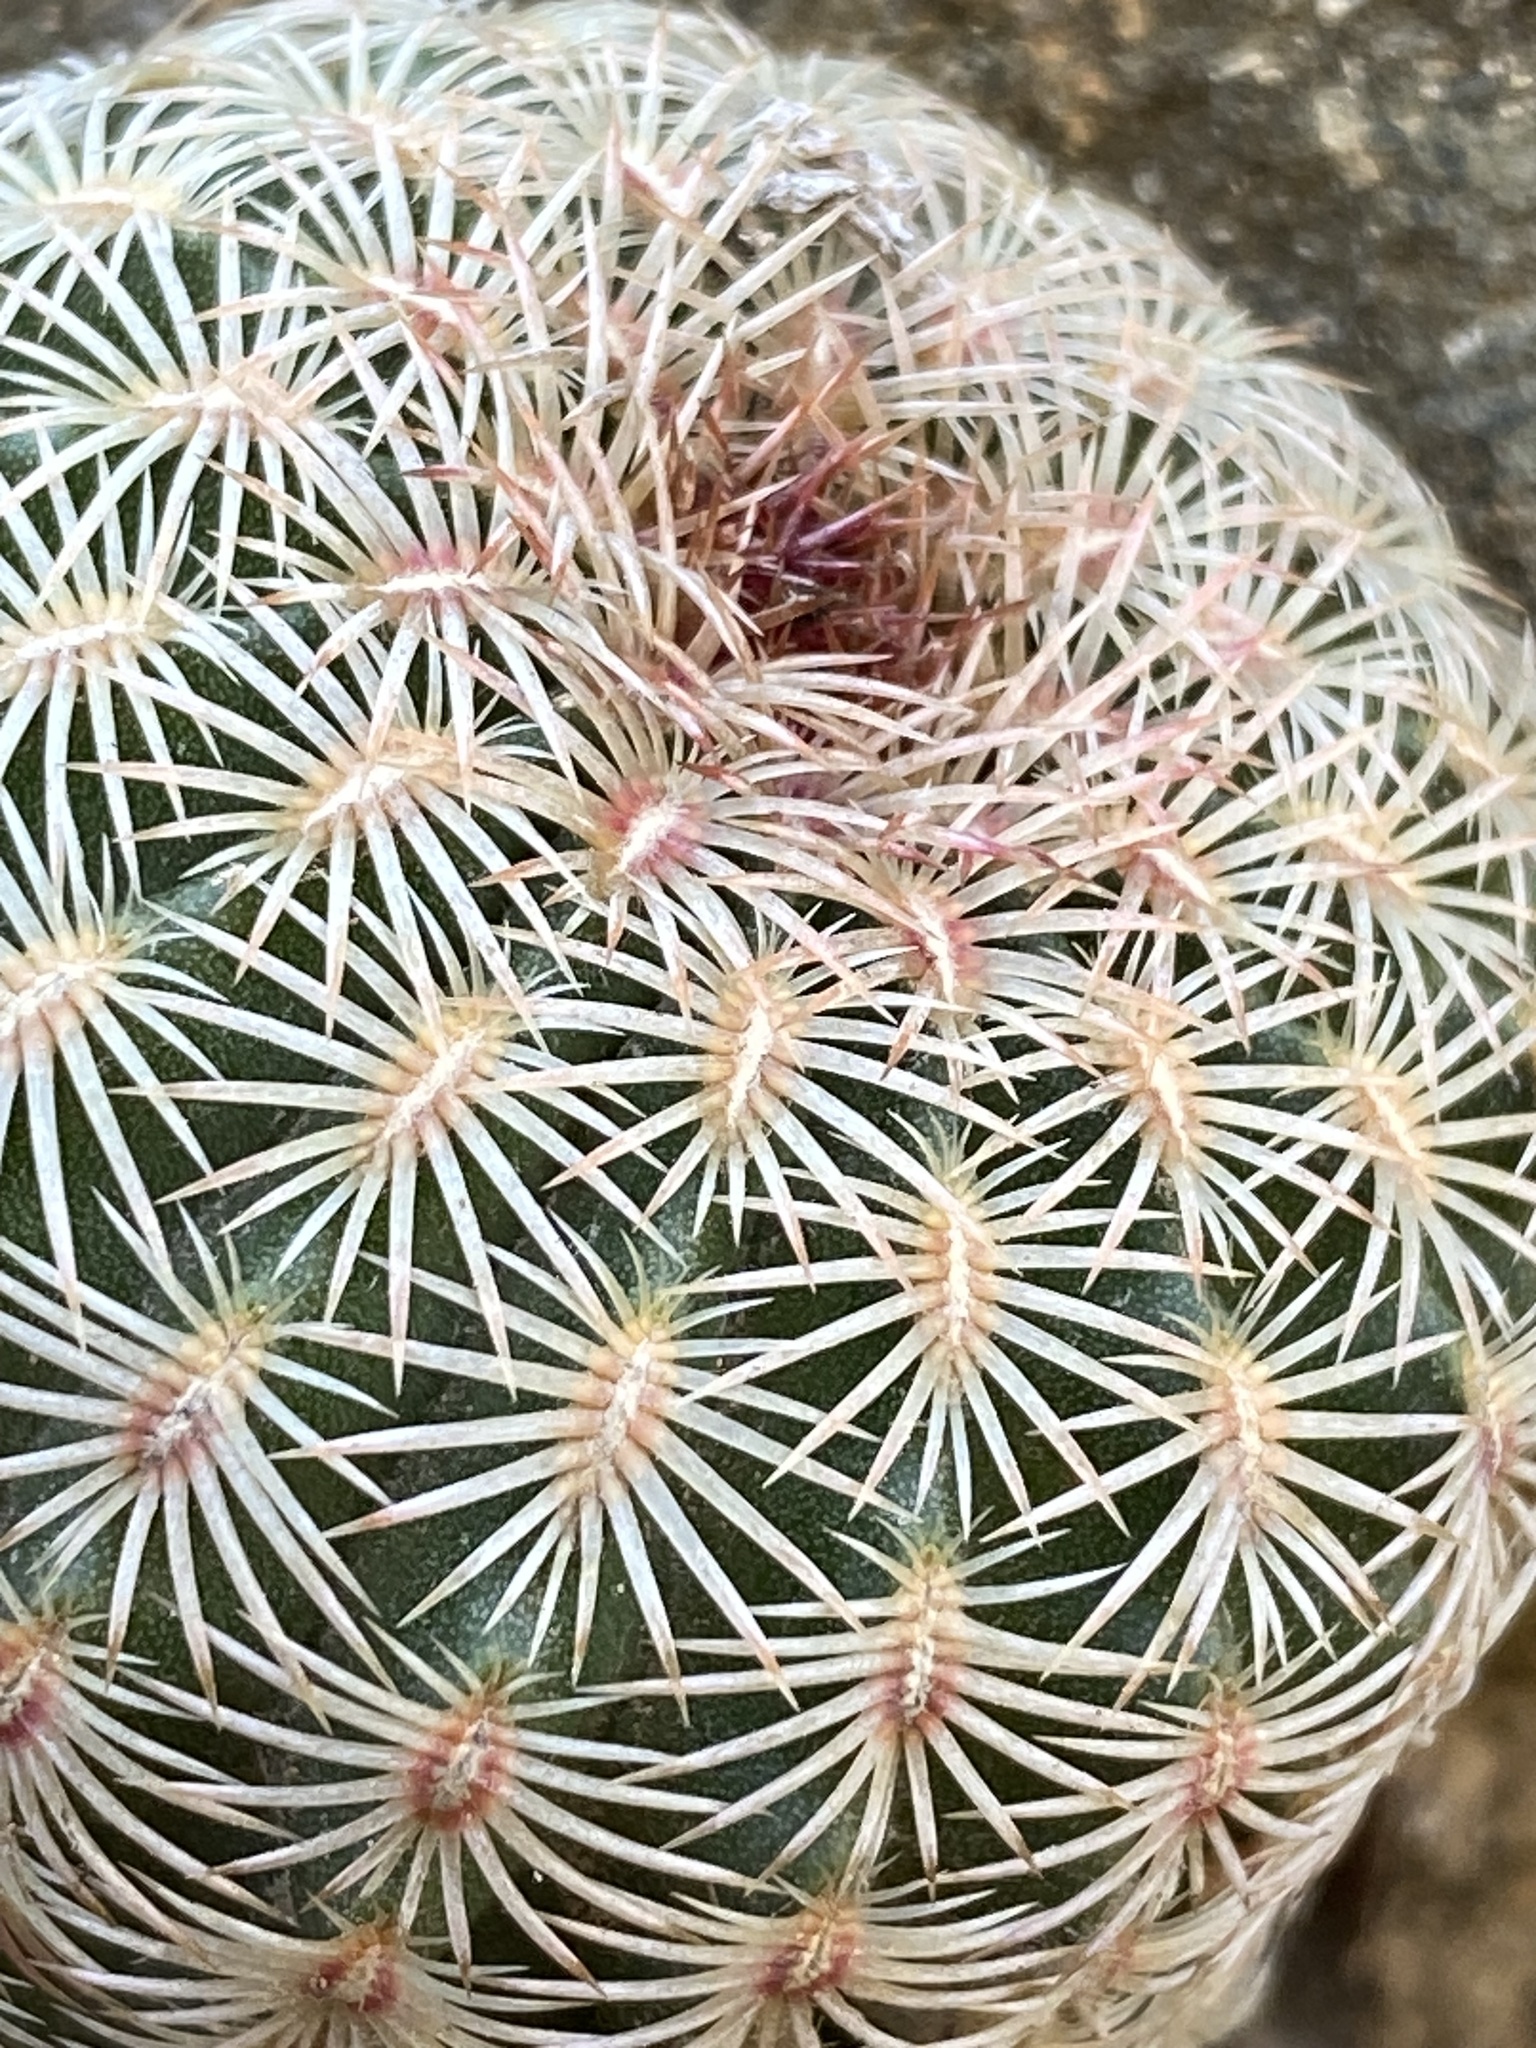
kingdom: Plantae
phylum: Tracheophyta
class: Magnoliopsida
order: Caryophyllales
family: Cactaceae
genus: Echinocereus
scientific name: Echinocereus rigidissimus
